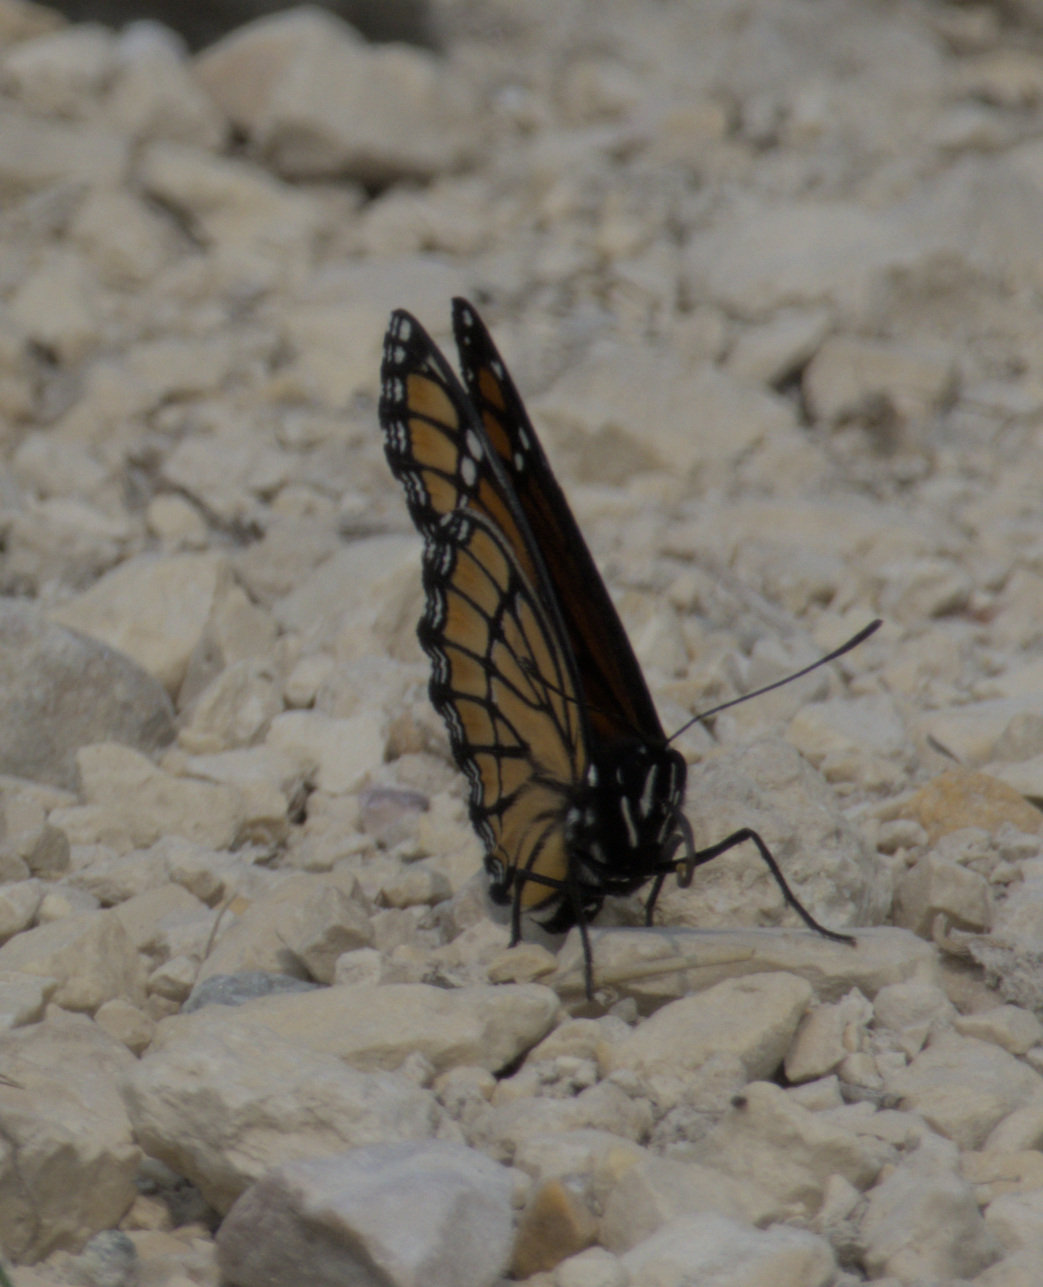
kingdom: Animalia
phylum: Arthropoda
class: Insecta
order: Lepidoptera
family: Nymphalidae
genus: Limenitis
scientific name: Limenitis archippus
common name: Viceroy
